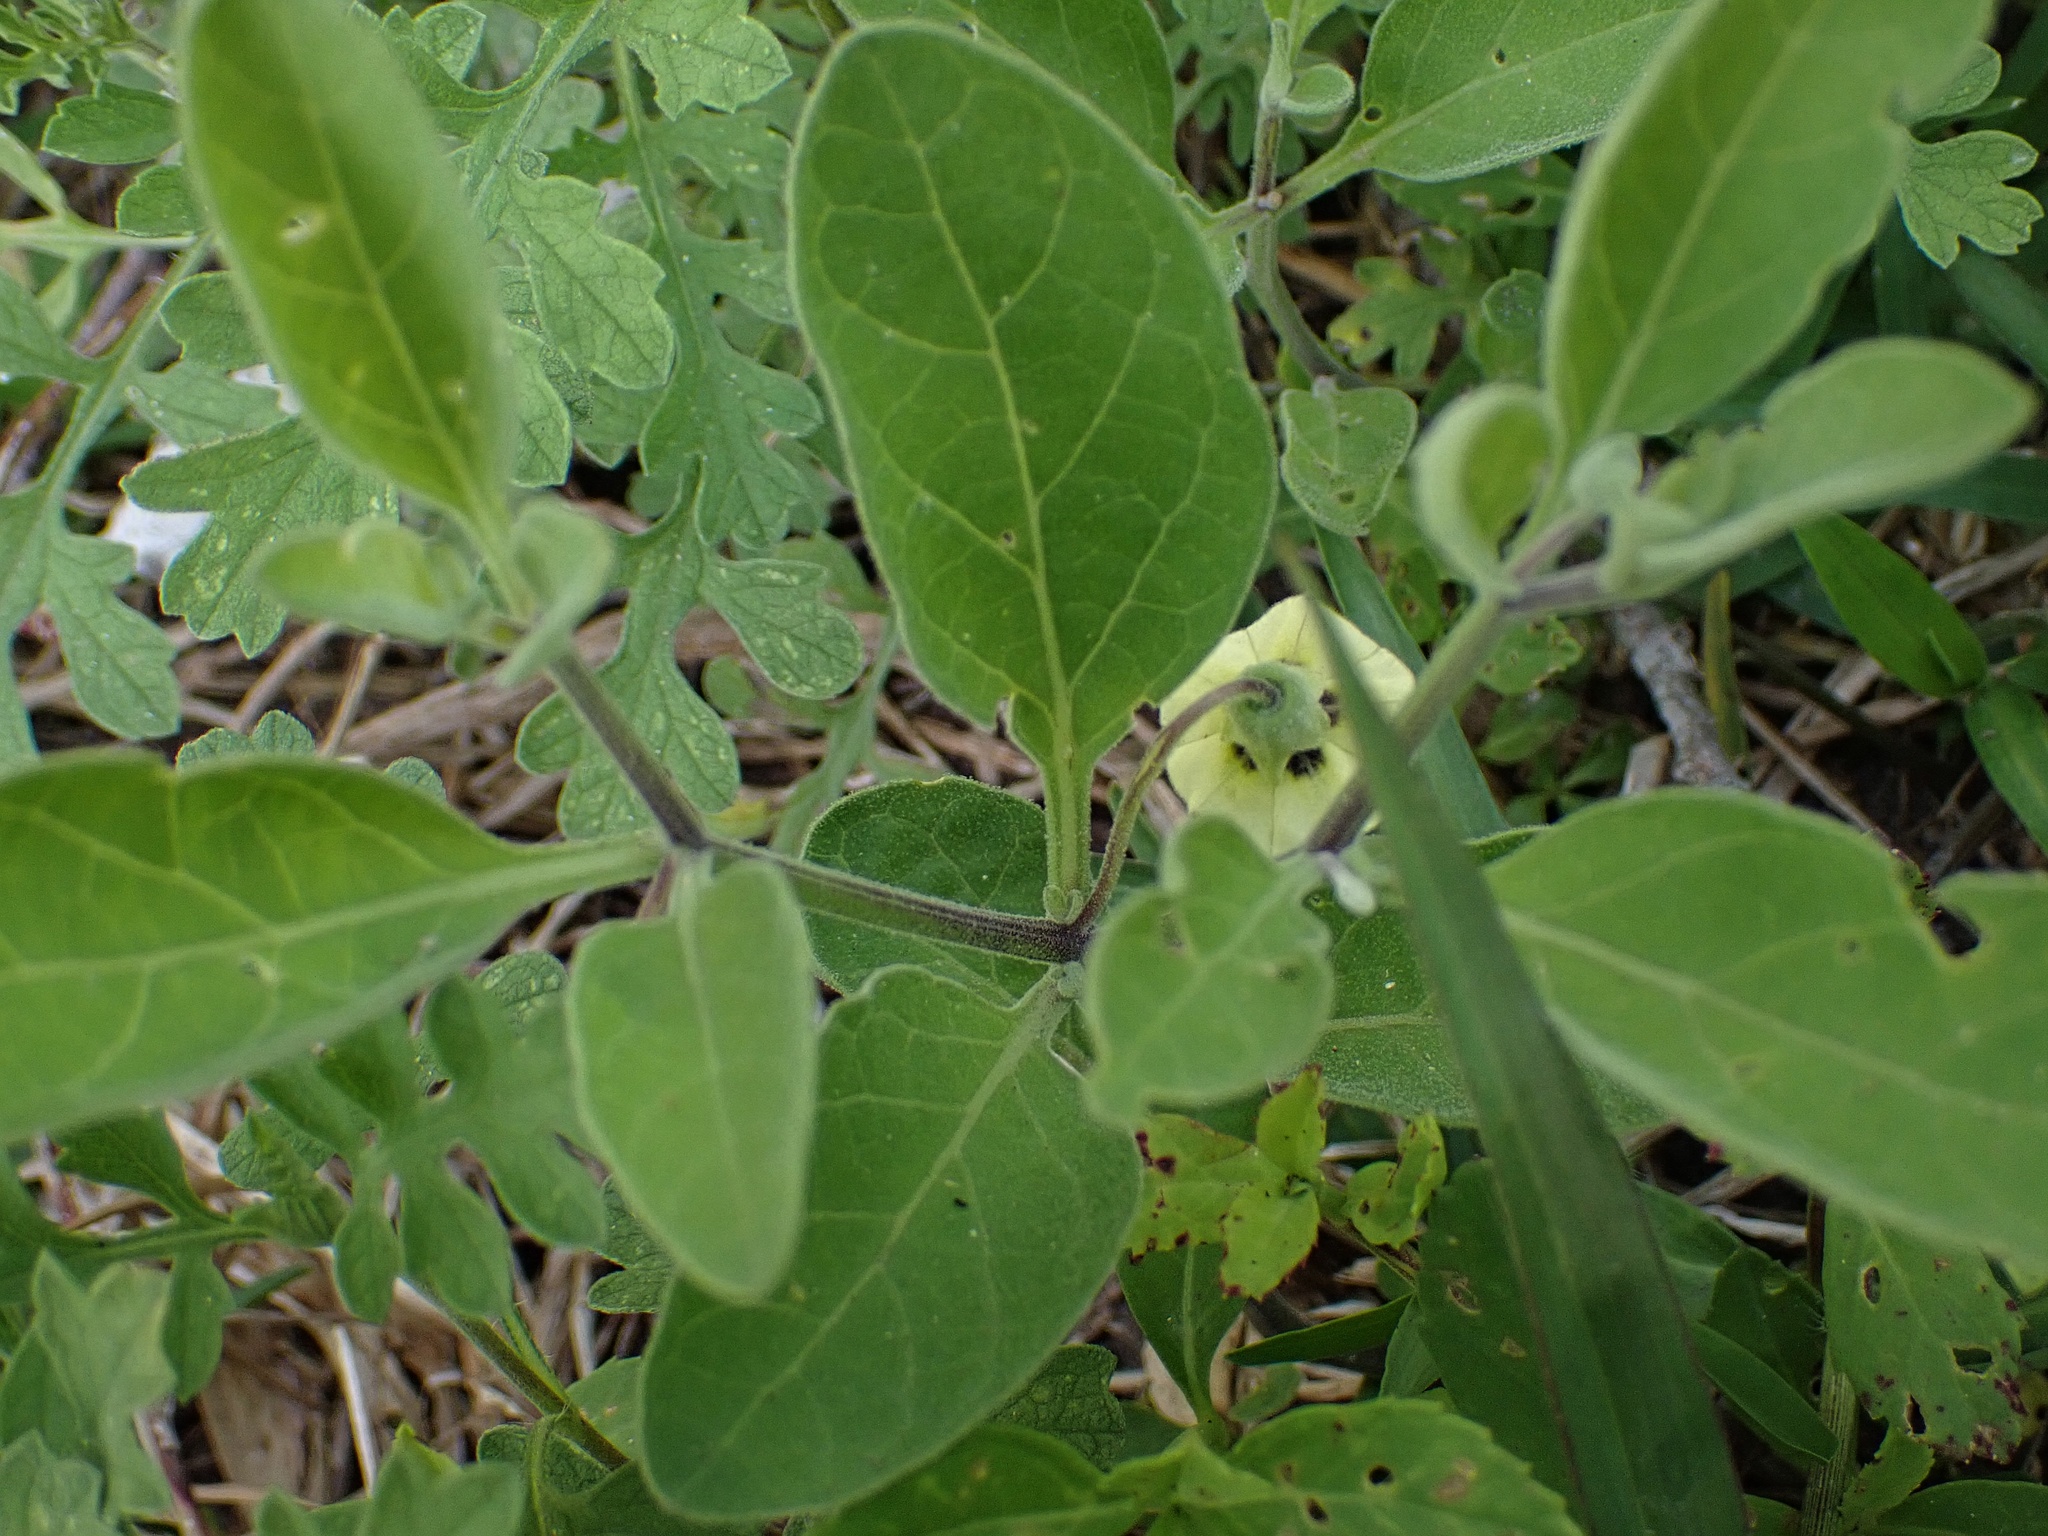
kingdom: Plantae
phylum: Tracheophyta
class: Magnoliopsida
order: Solanales
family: Solanaceae
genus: Physalis
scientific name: Physalis cinerascens
